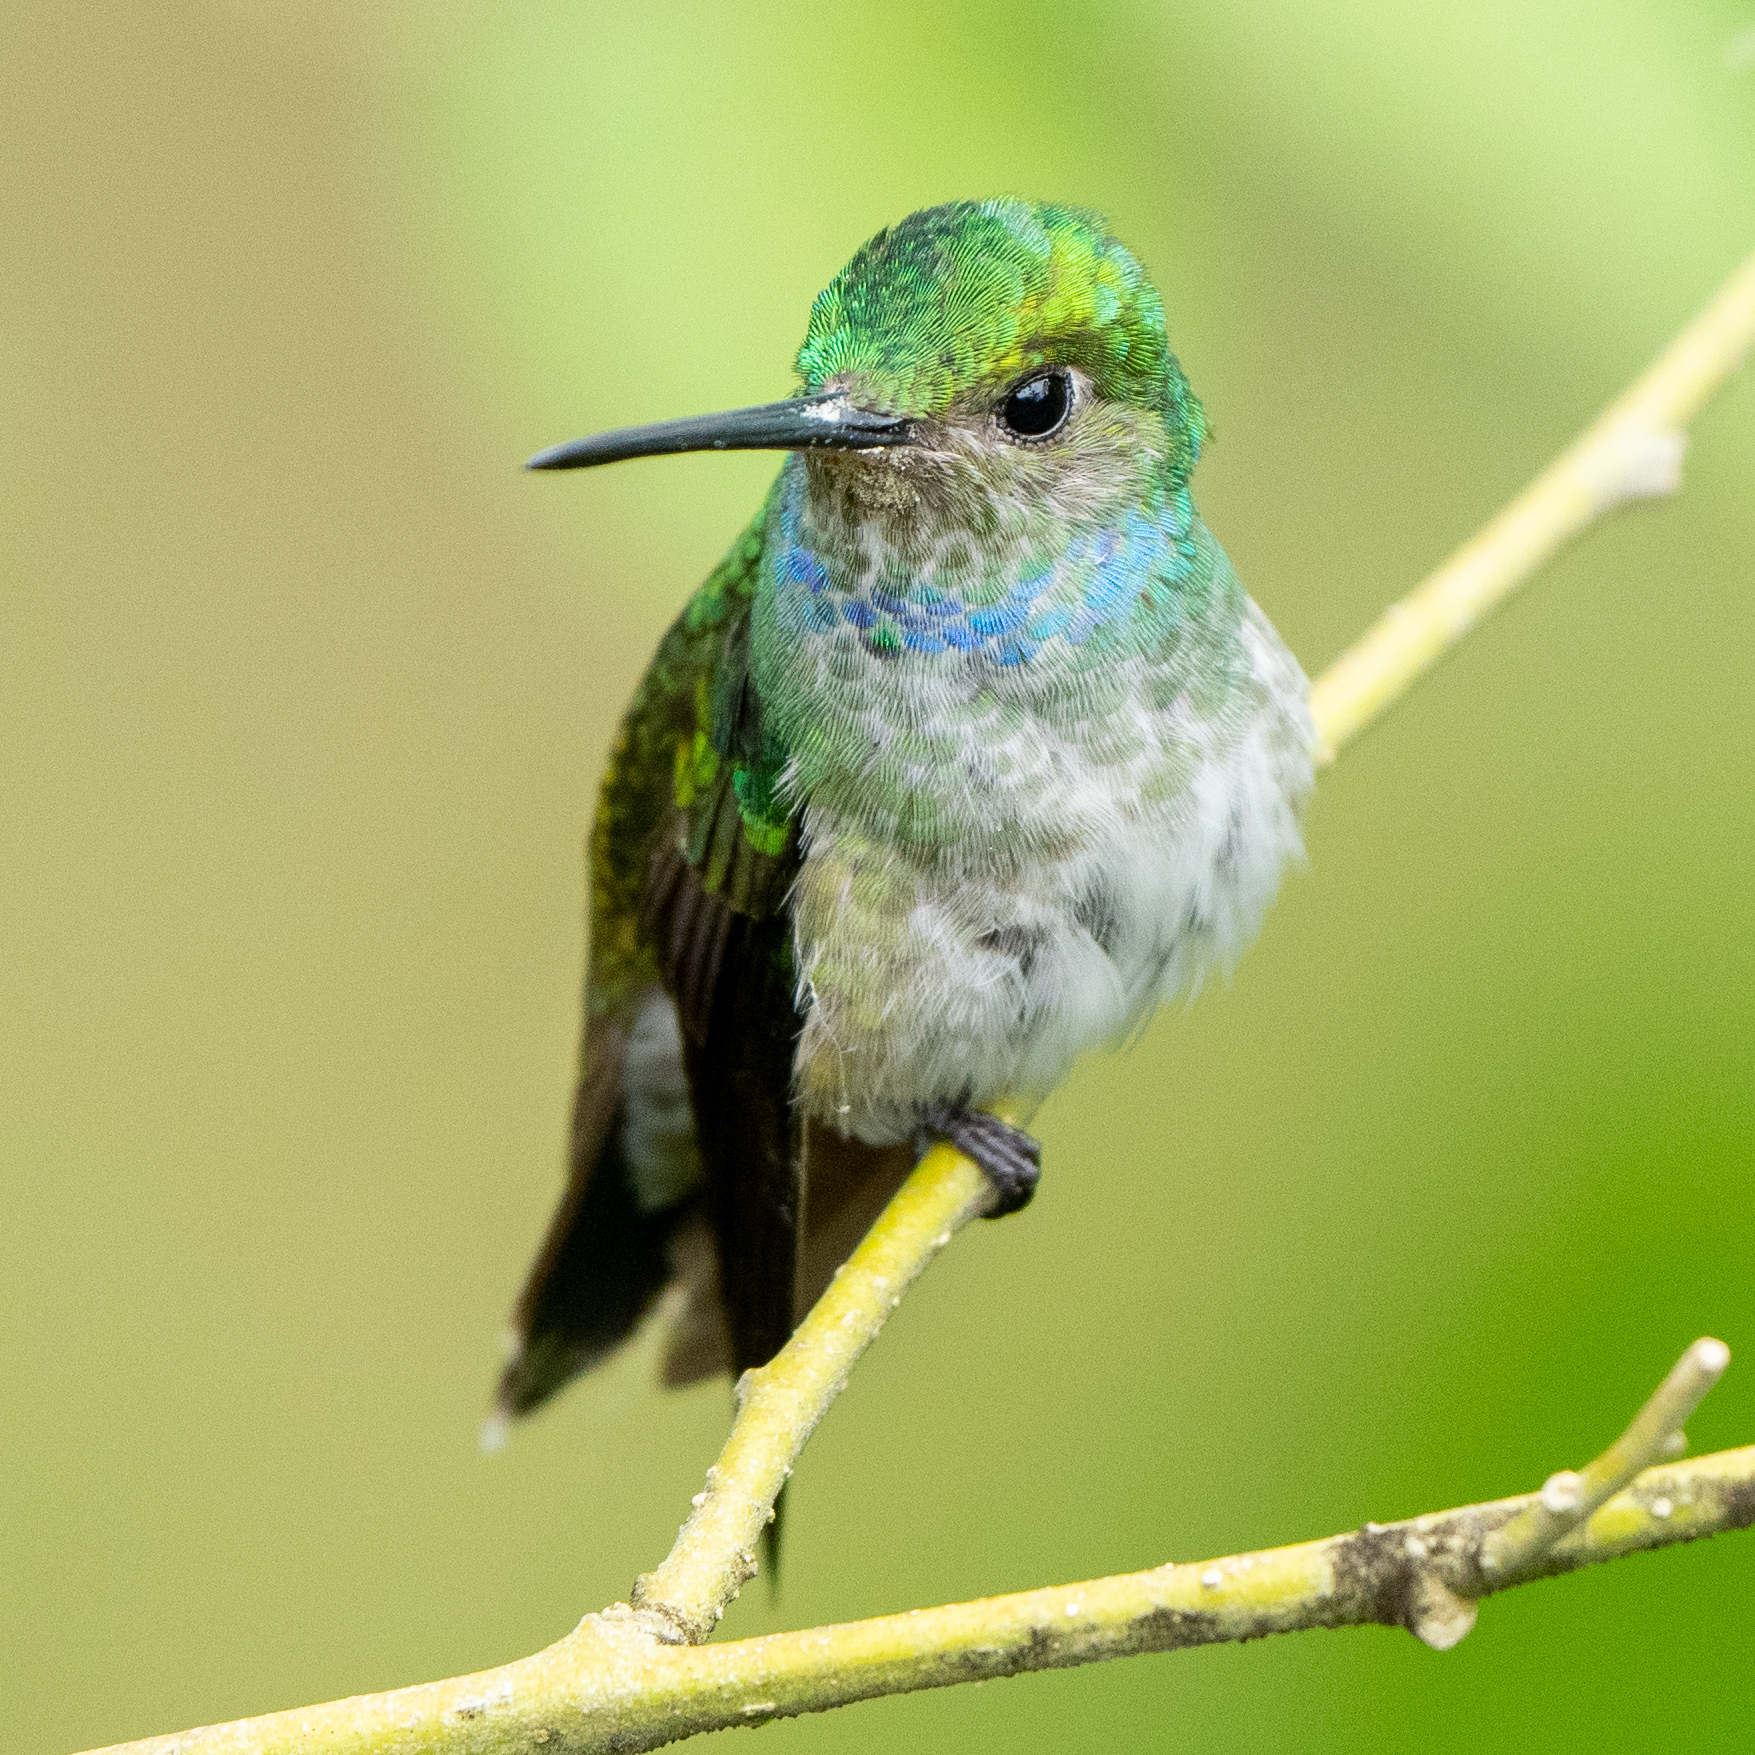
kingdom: Animalia
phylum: Chordata
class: Aves
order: Apodiformes
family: Trochilidae
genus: Polyerata
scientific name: Polyerata decora
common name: Charming hummingbird
